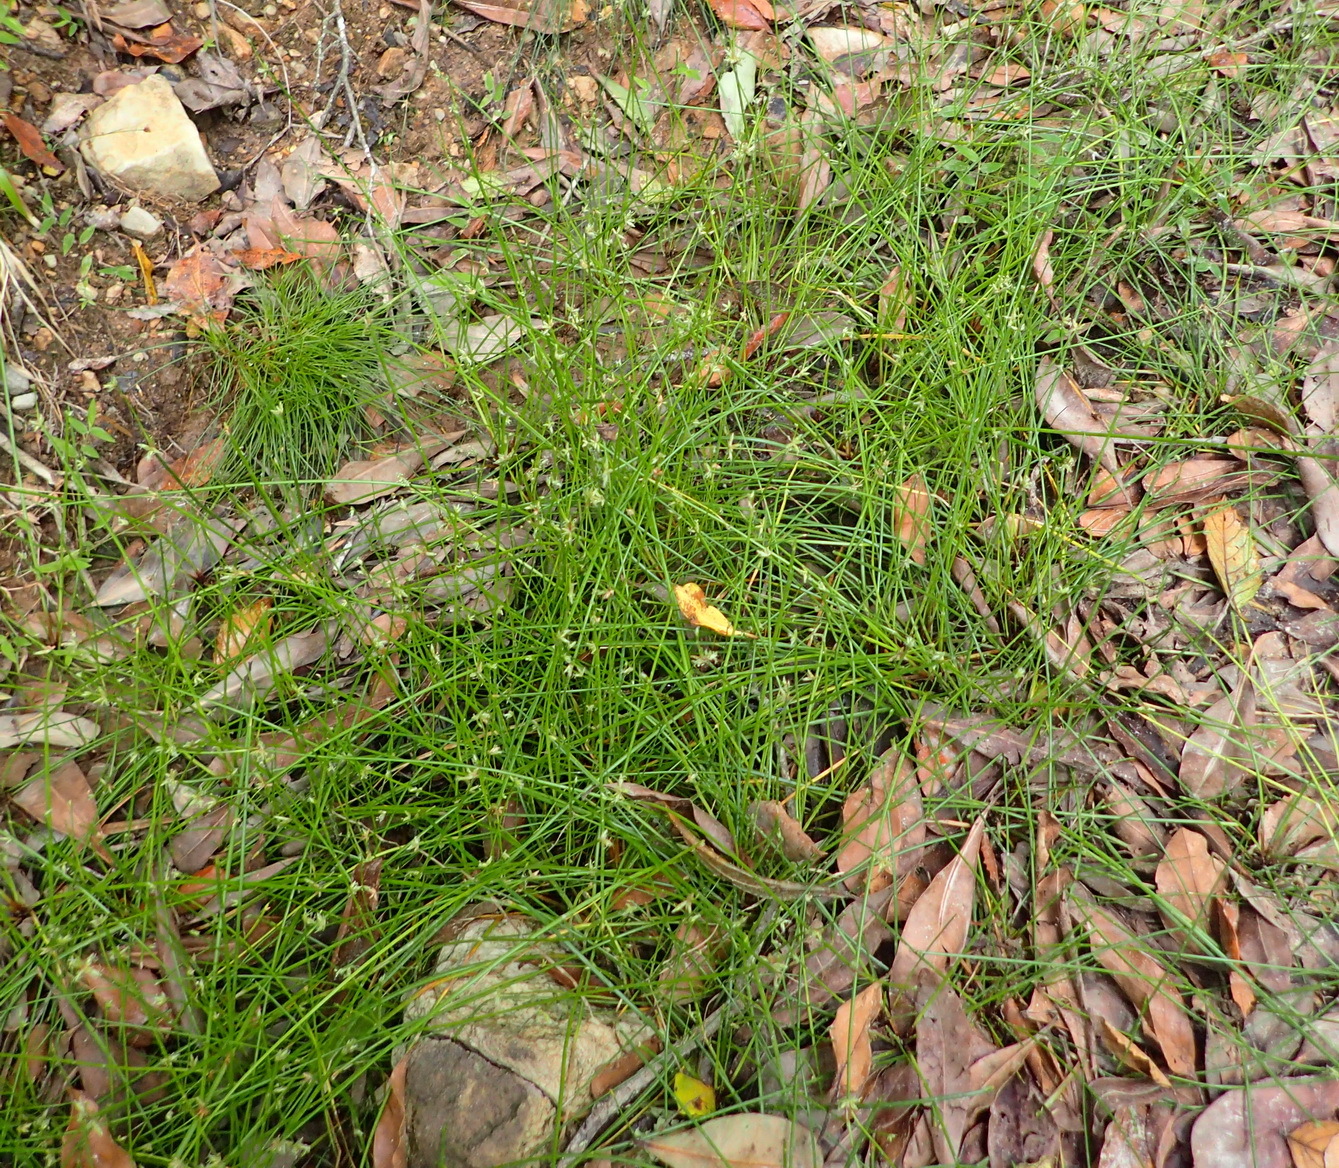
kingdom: Plantae
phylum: Tracheophyta
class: Liliopsida
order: Poales
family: Cyperaceae
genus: Isolepis
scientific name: Isolepis prolifera
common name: Proliferating bulrush
